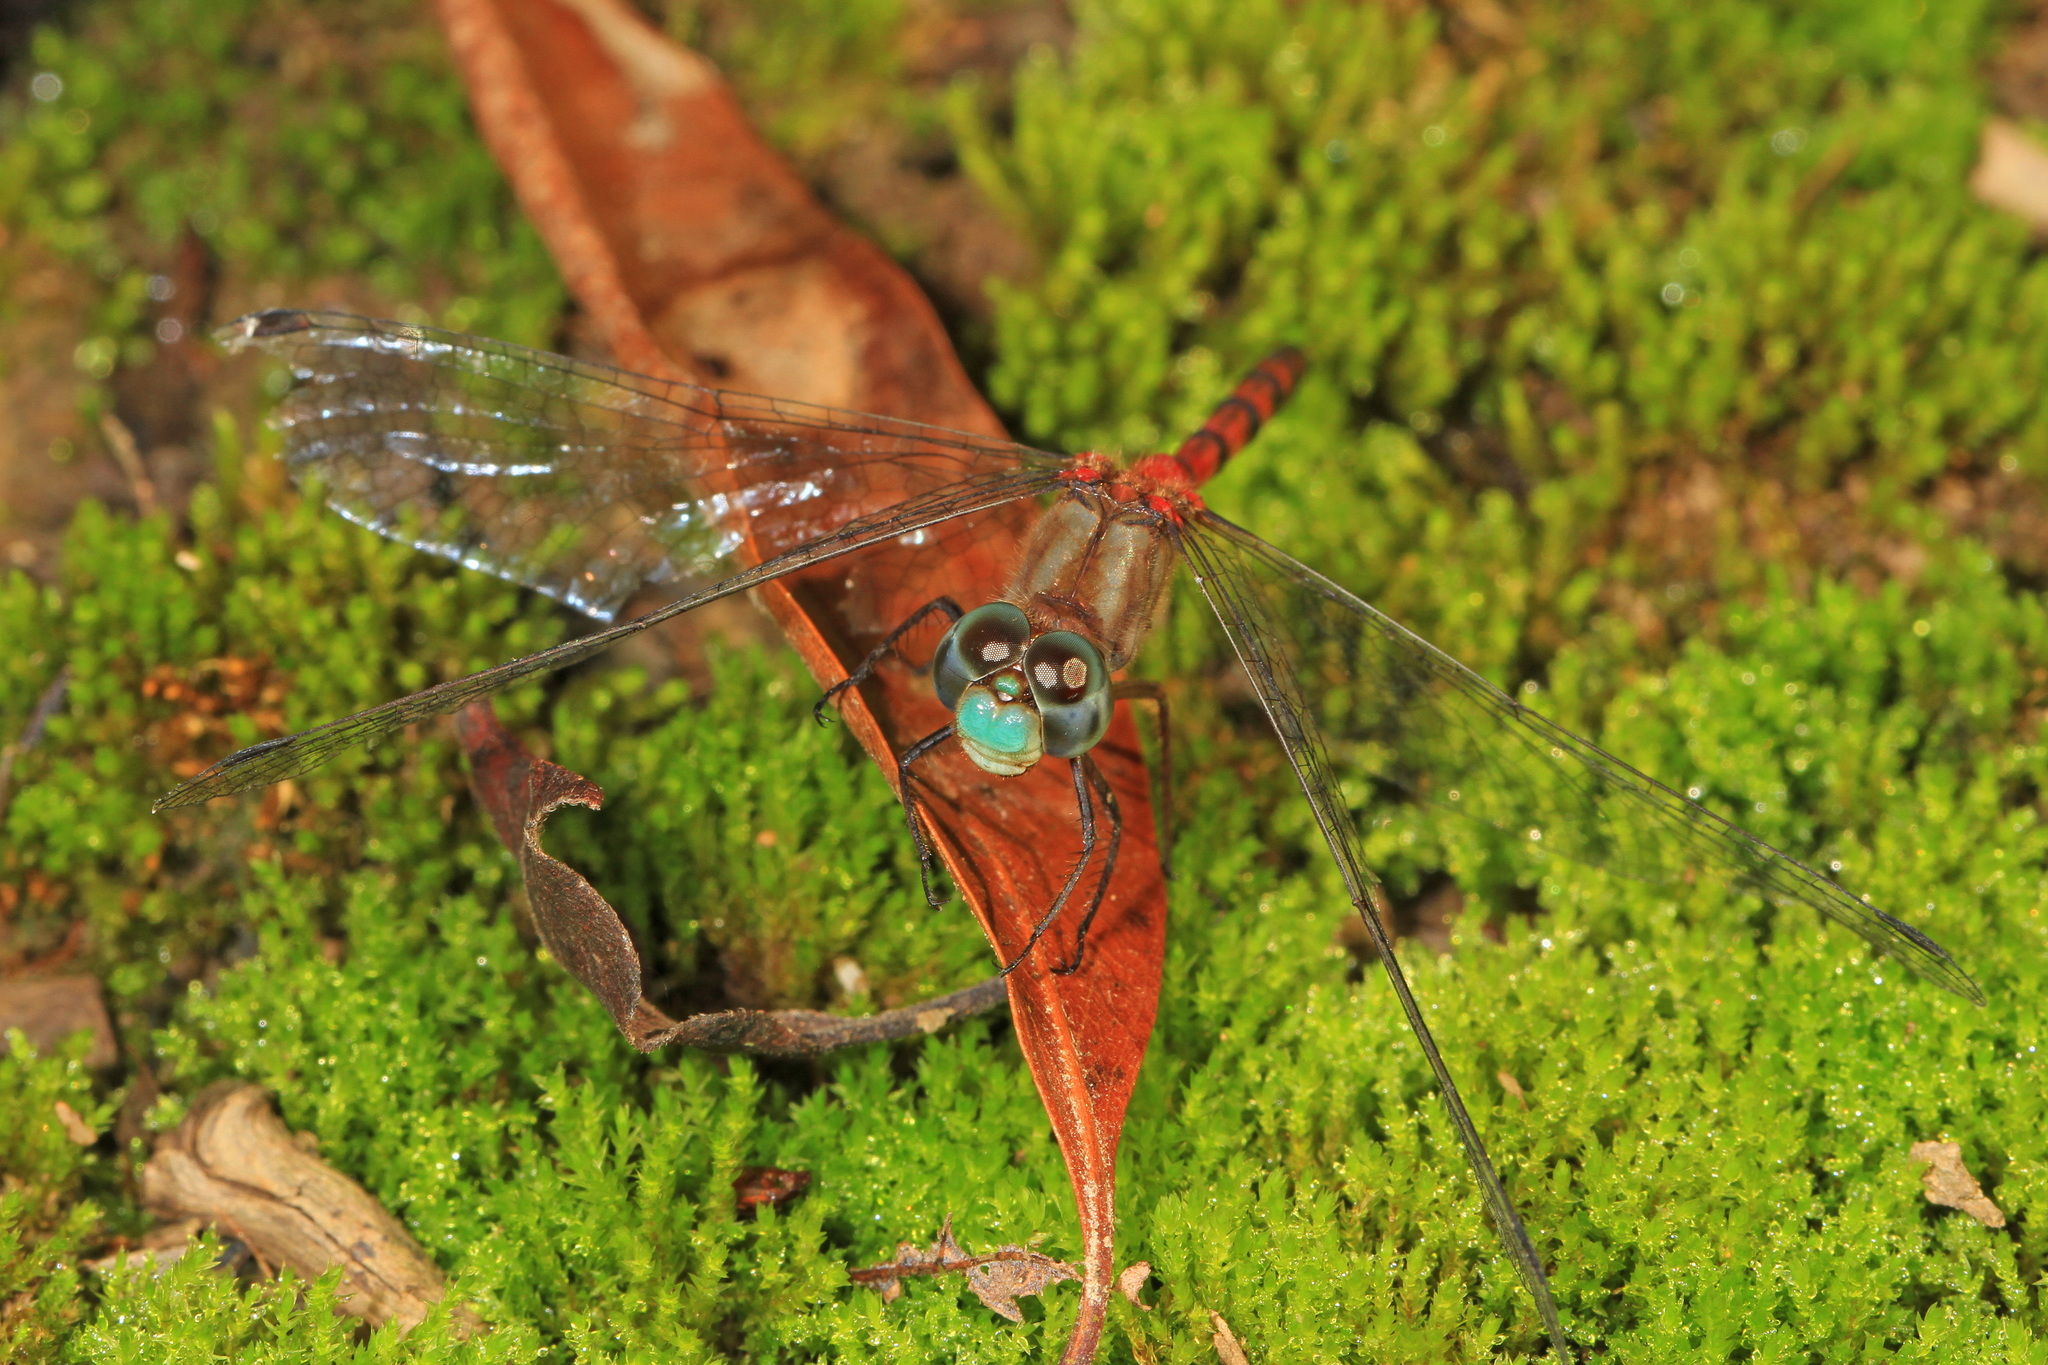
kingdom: Animalia
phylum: Arthropoda
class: Insecta
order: Odonata
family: Libellulidae
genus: Sympetrum
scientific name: Sympetrum ambiguum
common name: Blue-faced meadowhawk
